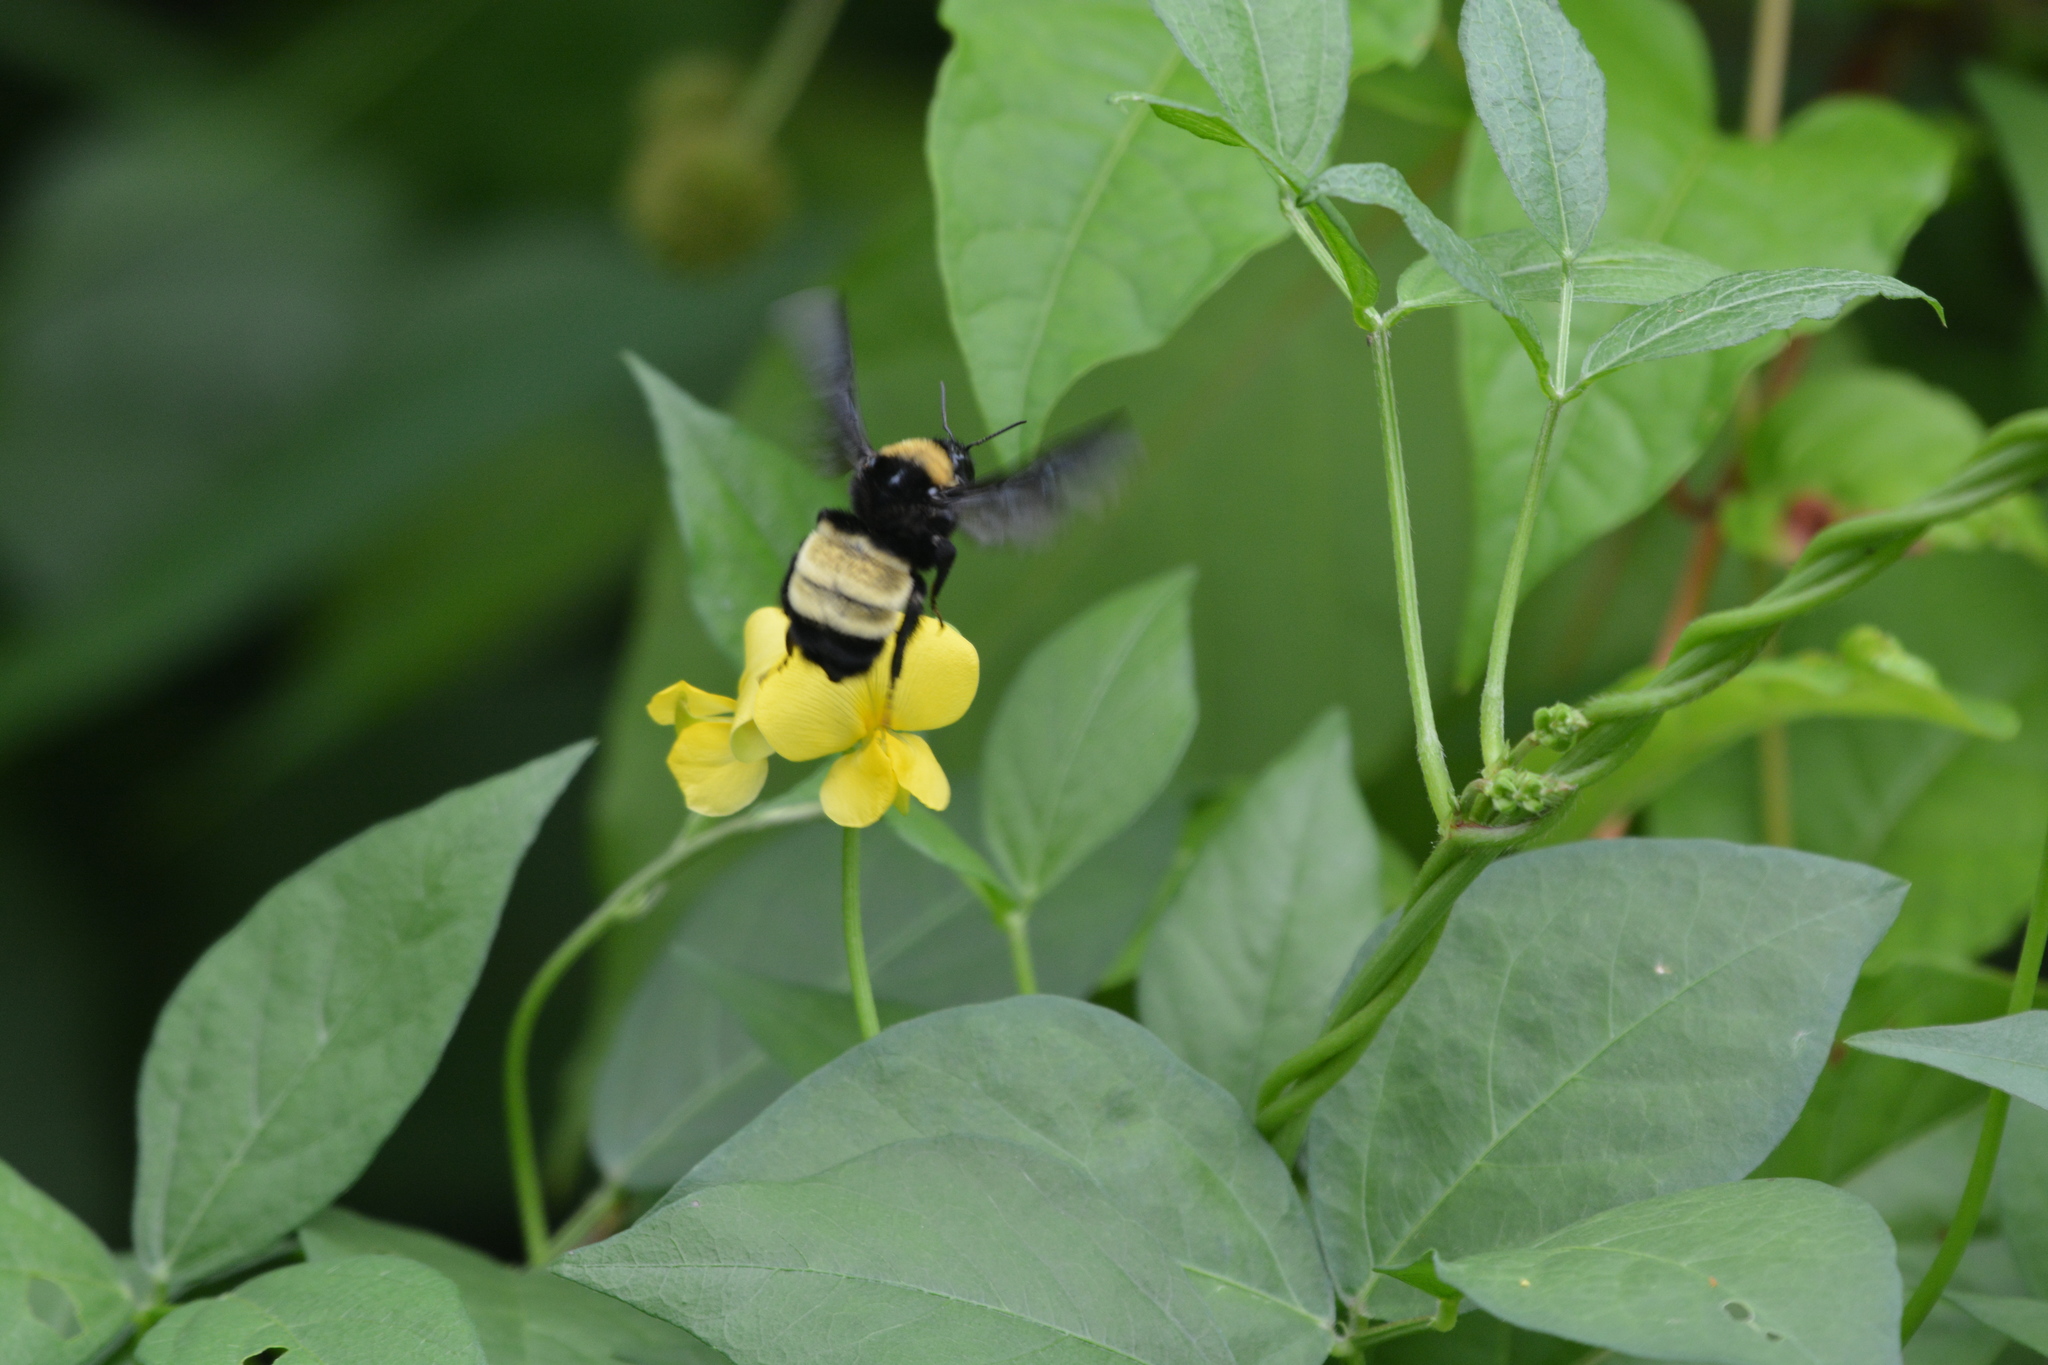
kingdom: Animalia
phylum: Arthropoda
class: Insecta
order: Hymenoptera
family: Apidae
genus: Bombus
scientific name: Bombus pensylvanicus
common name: Bumble bee
